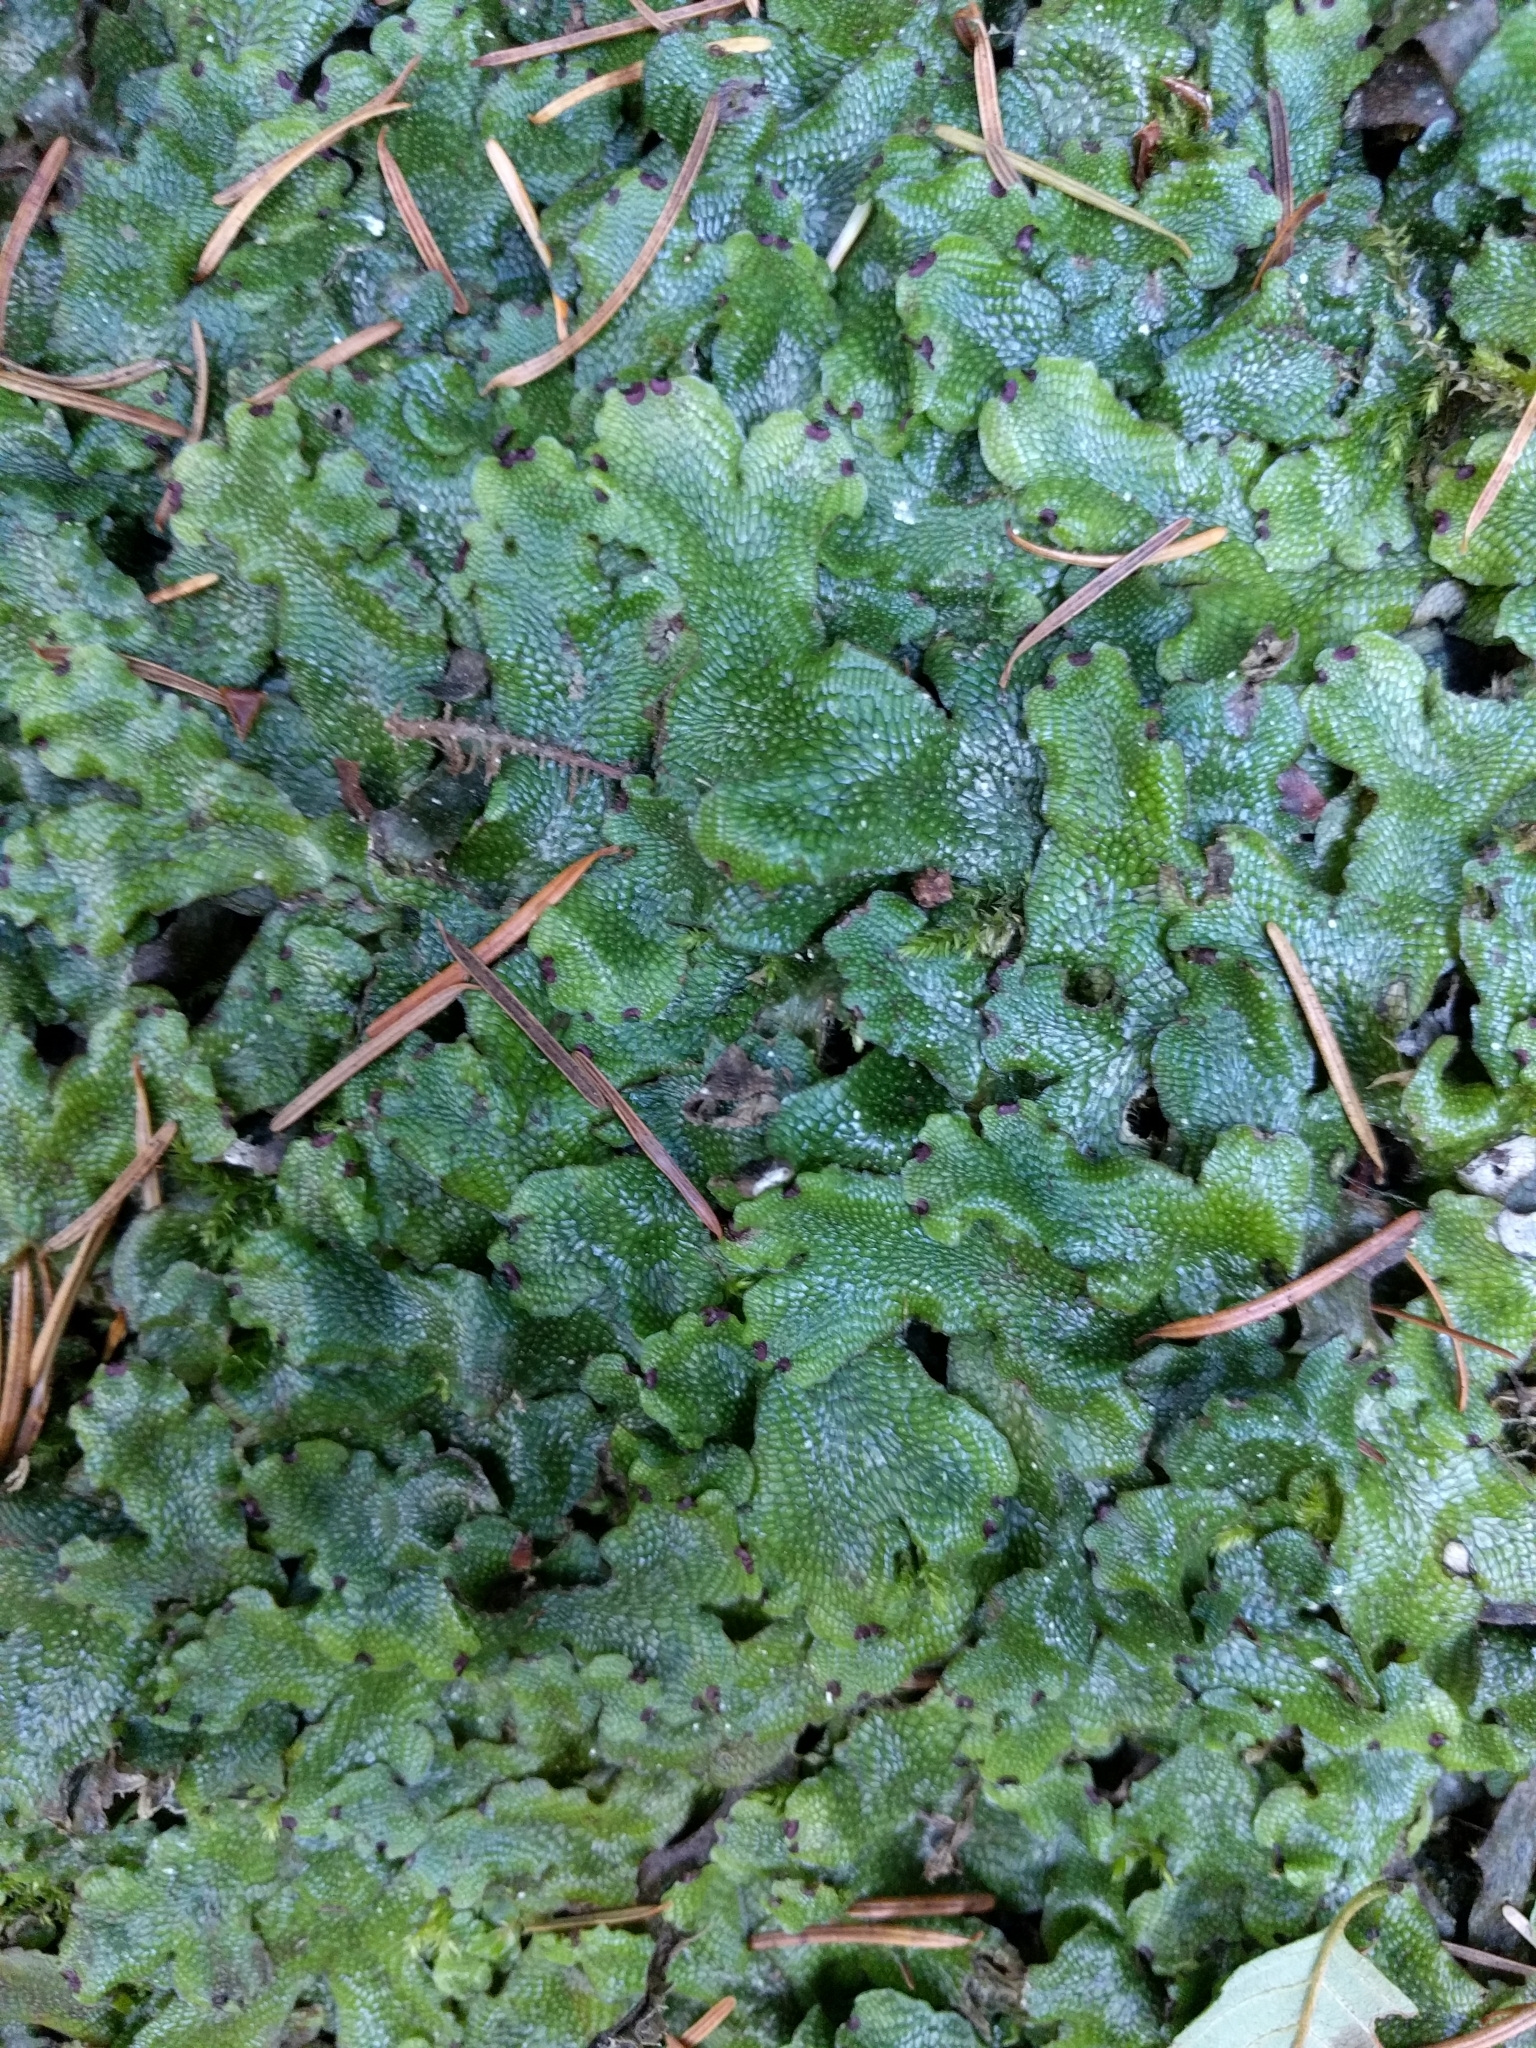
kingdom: Plantae
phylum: Marchantiophyta
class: Marchantiopsida
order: Marchantiales
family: Conocephalaceae
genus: Conocephalum
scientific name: Conocephalum salebrosum
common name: Cat-tongue liverwort
